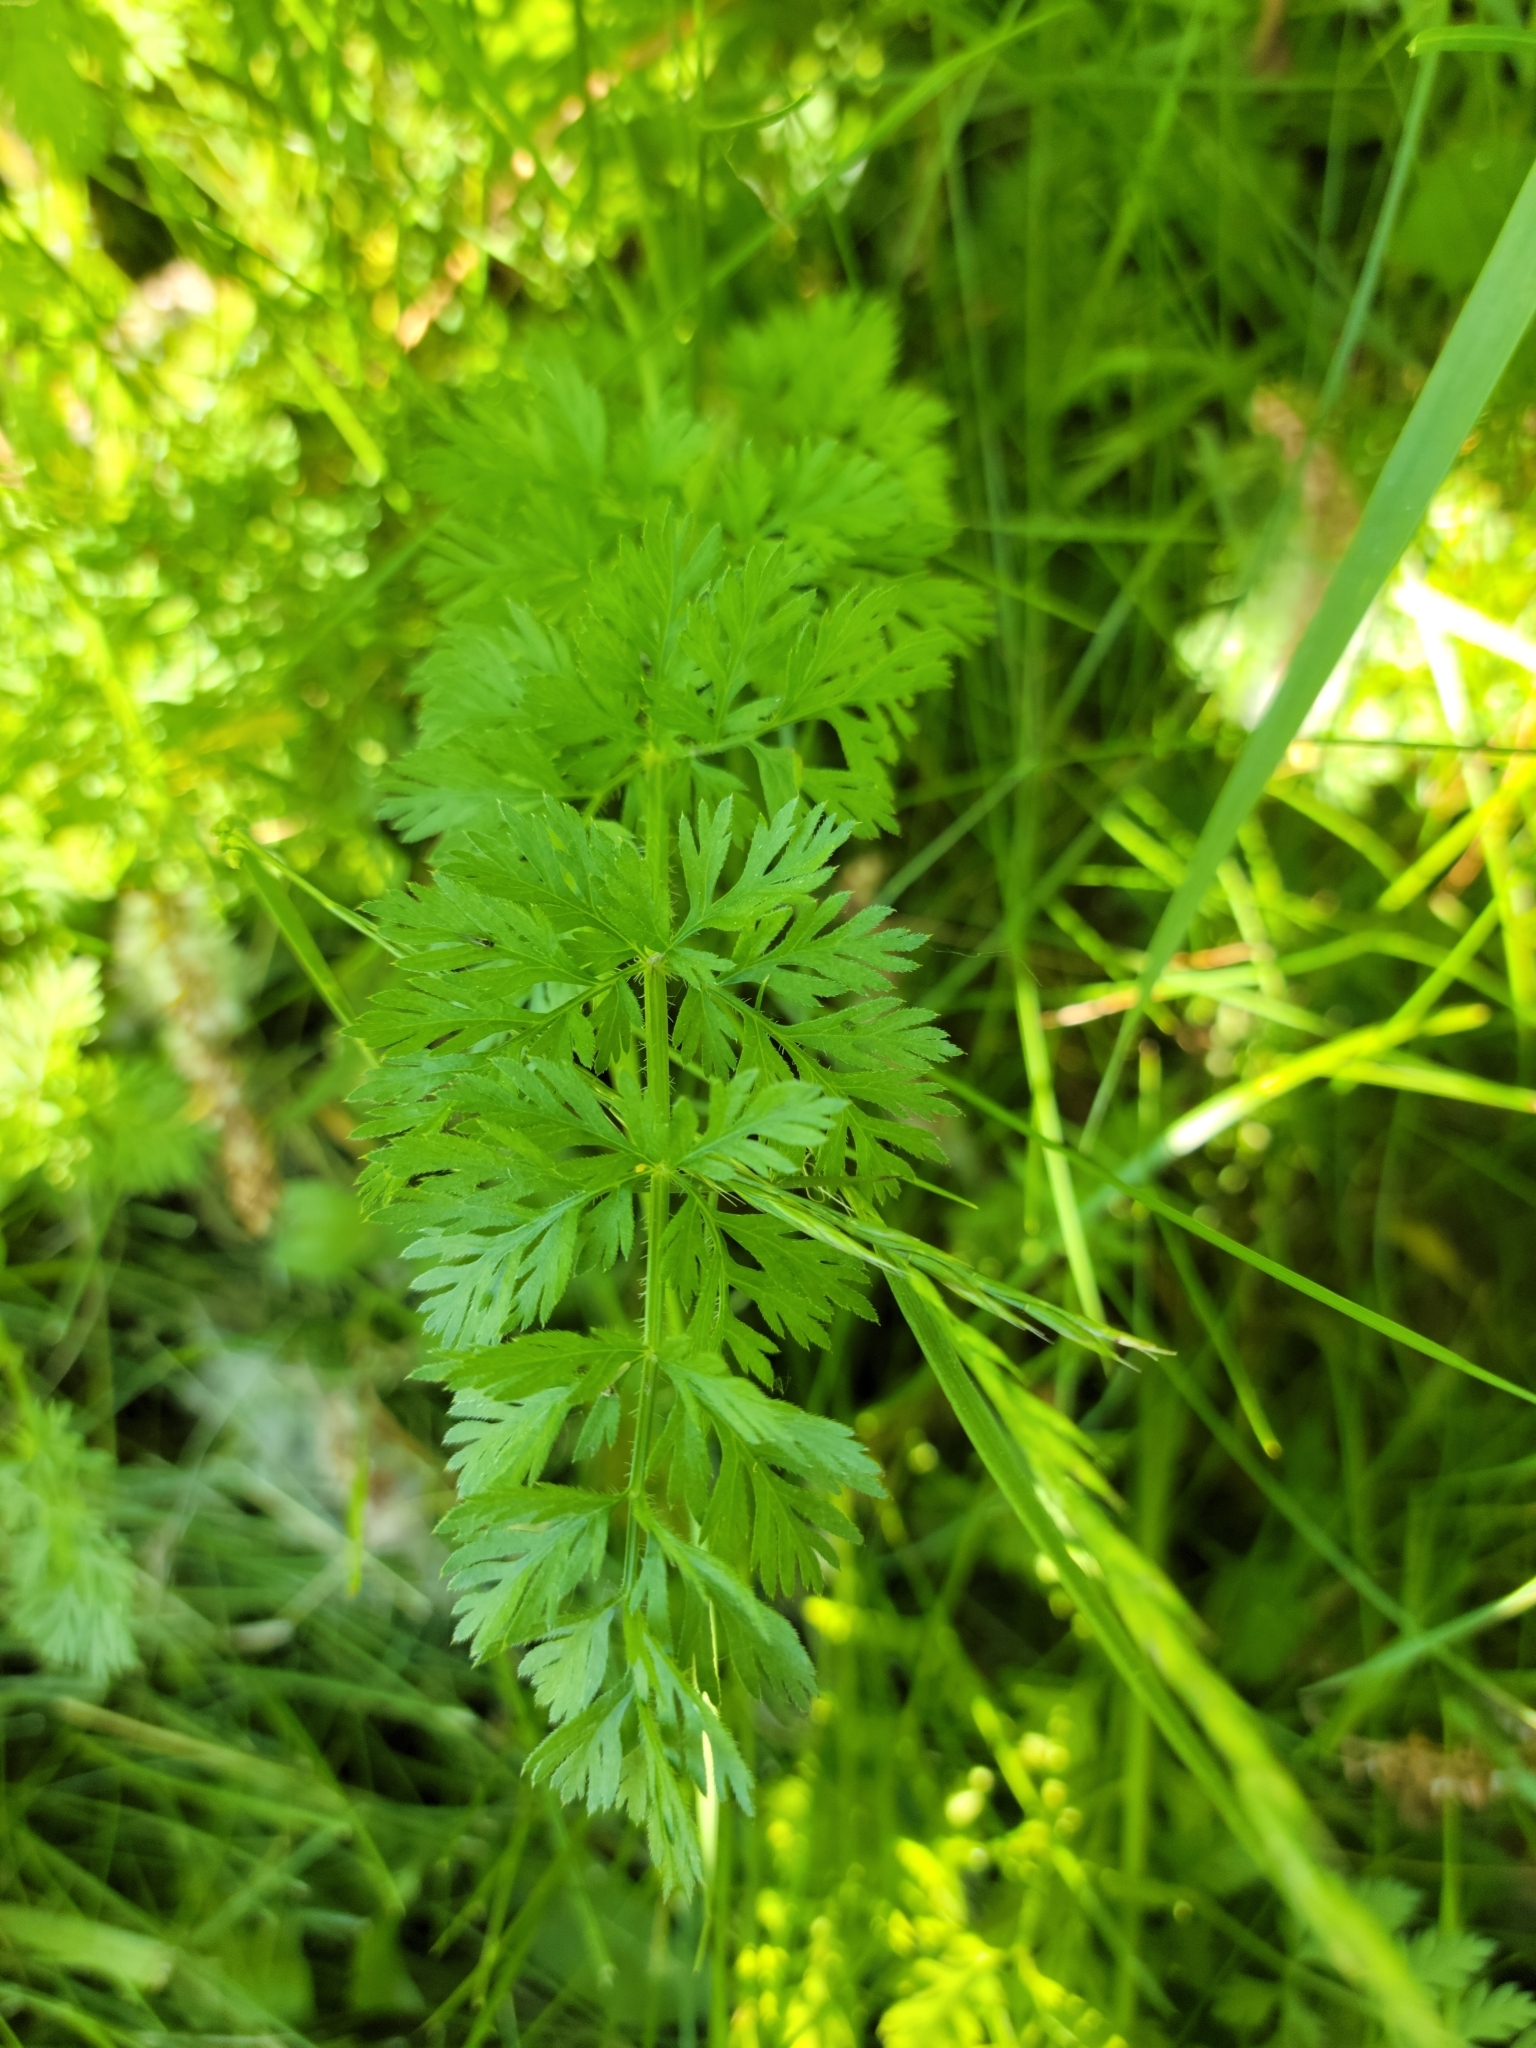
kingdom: Plantae
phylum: Tracheophyta
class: Magnoliopsida
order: Apiales
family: Apiaceae
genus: Daucus
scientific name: Daucus carota
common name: Wild carrot
